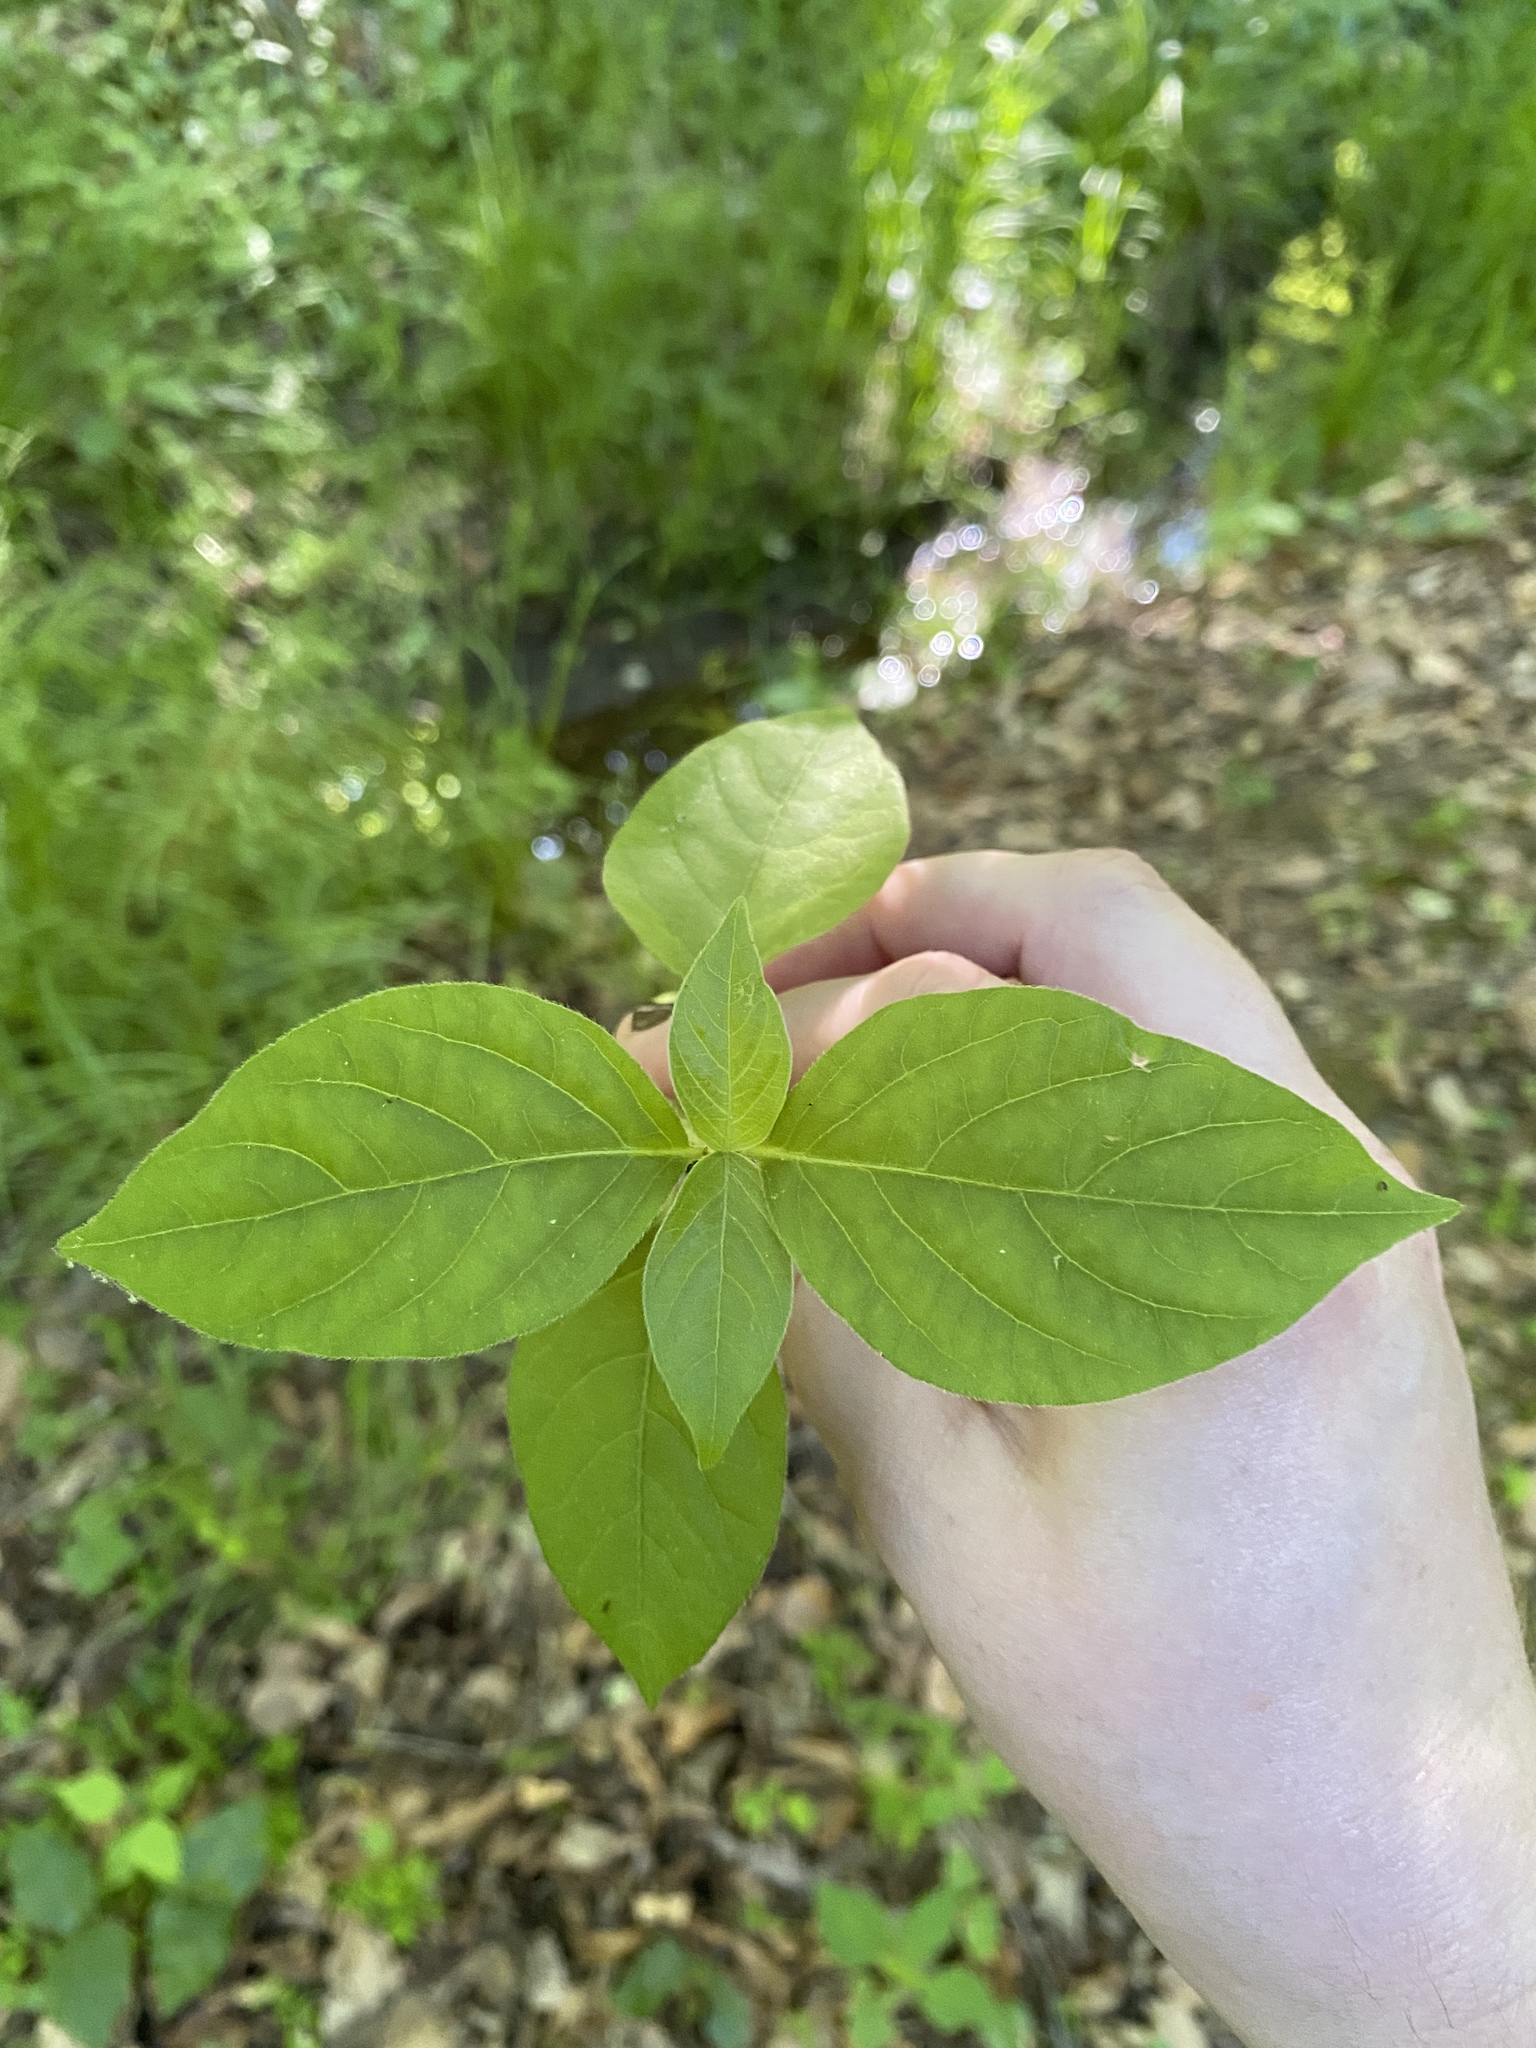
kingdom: Plantae
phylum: Tracheophyta
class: Magnoliopsida
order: Caryophyllales
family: Amaranthaceae
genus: Achyranthes
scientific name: Achyranthes bidentata
